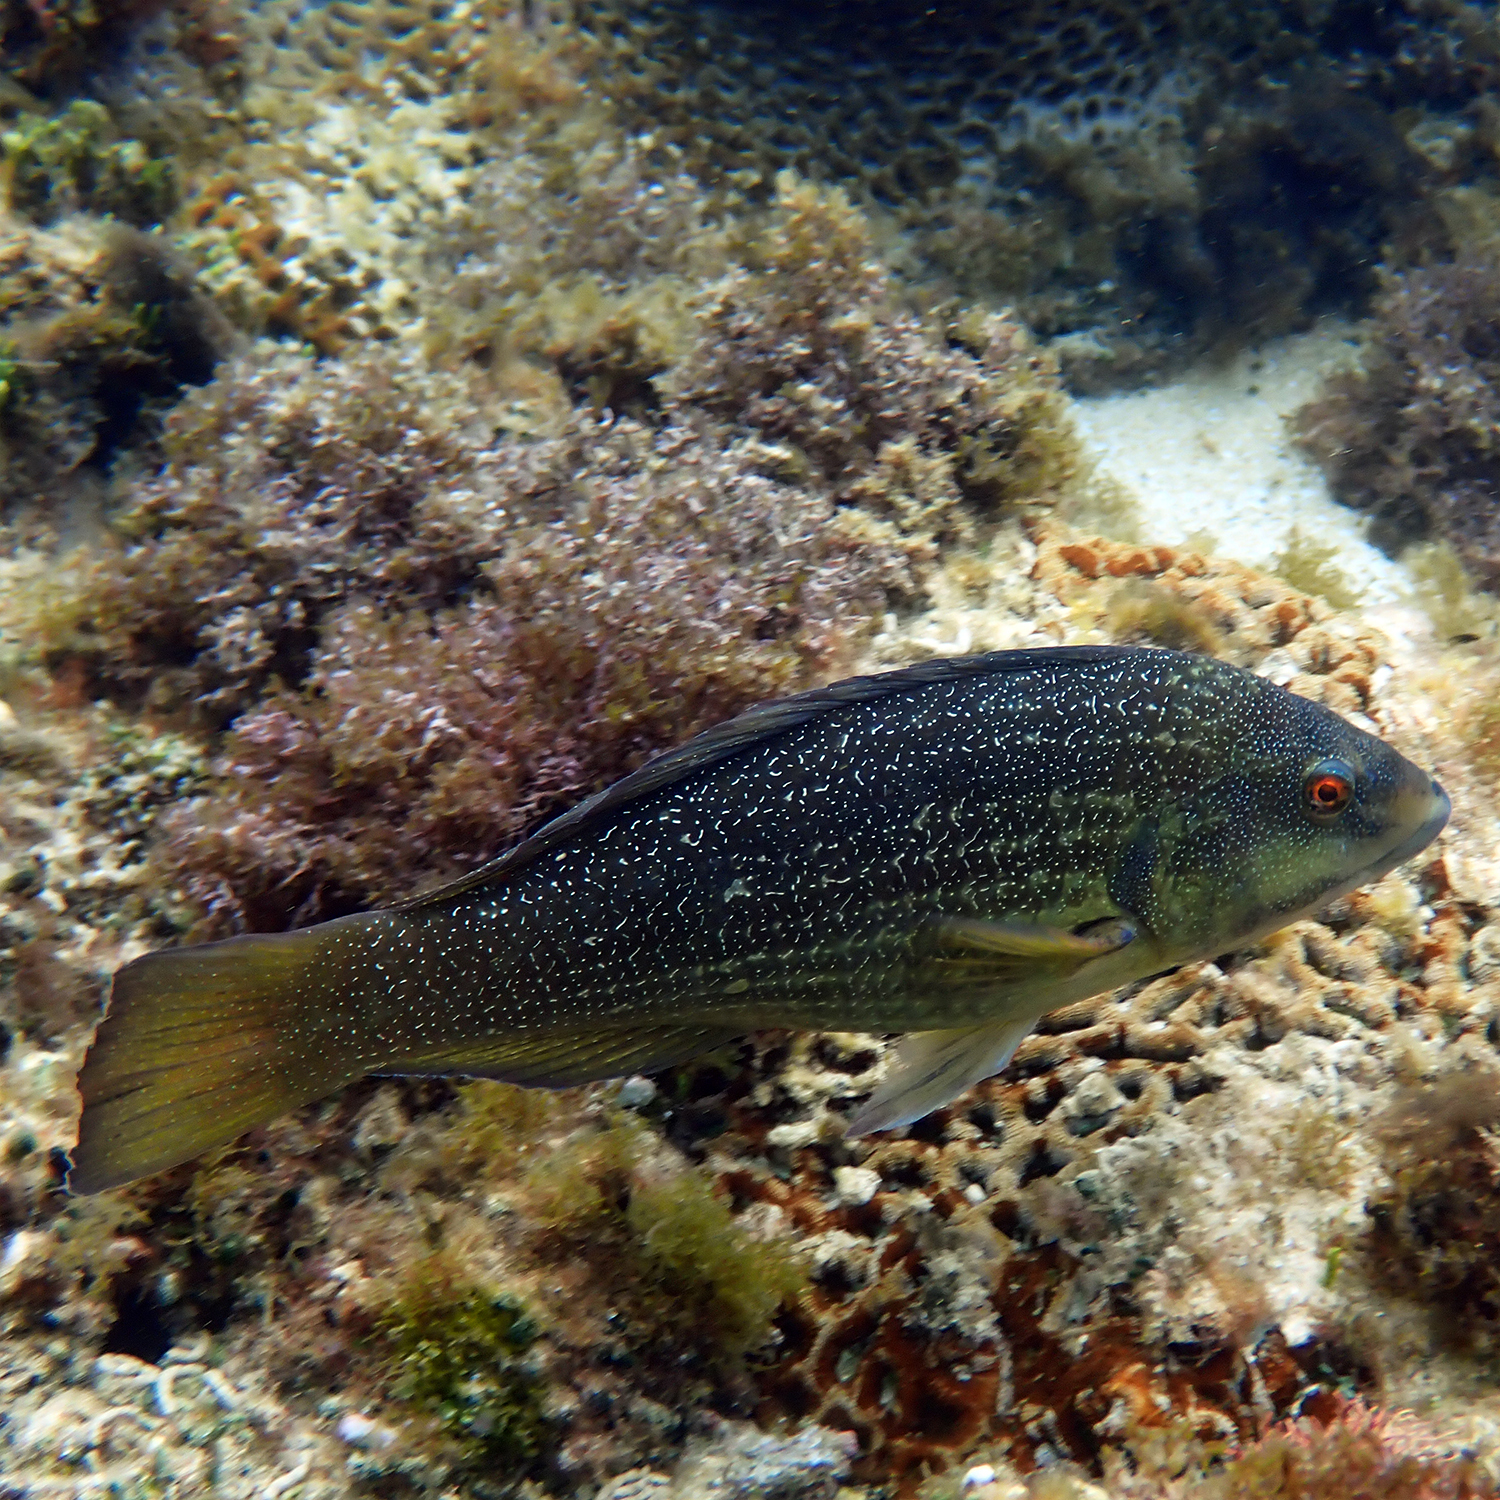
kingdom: Animalia
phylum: Chordata
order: Perciformes
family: Labridae
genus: Notolabrus
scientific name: Notolabrus inscriptus
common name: Green wrasse
